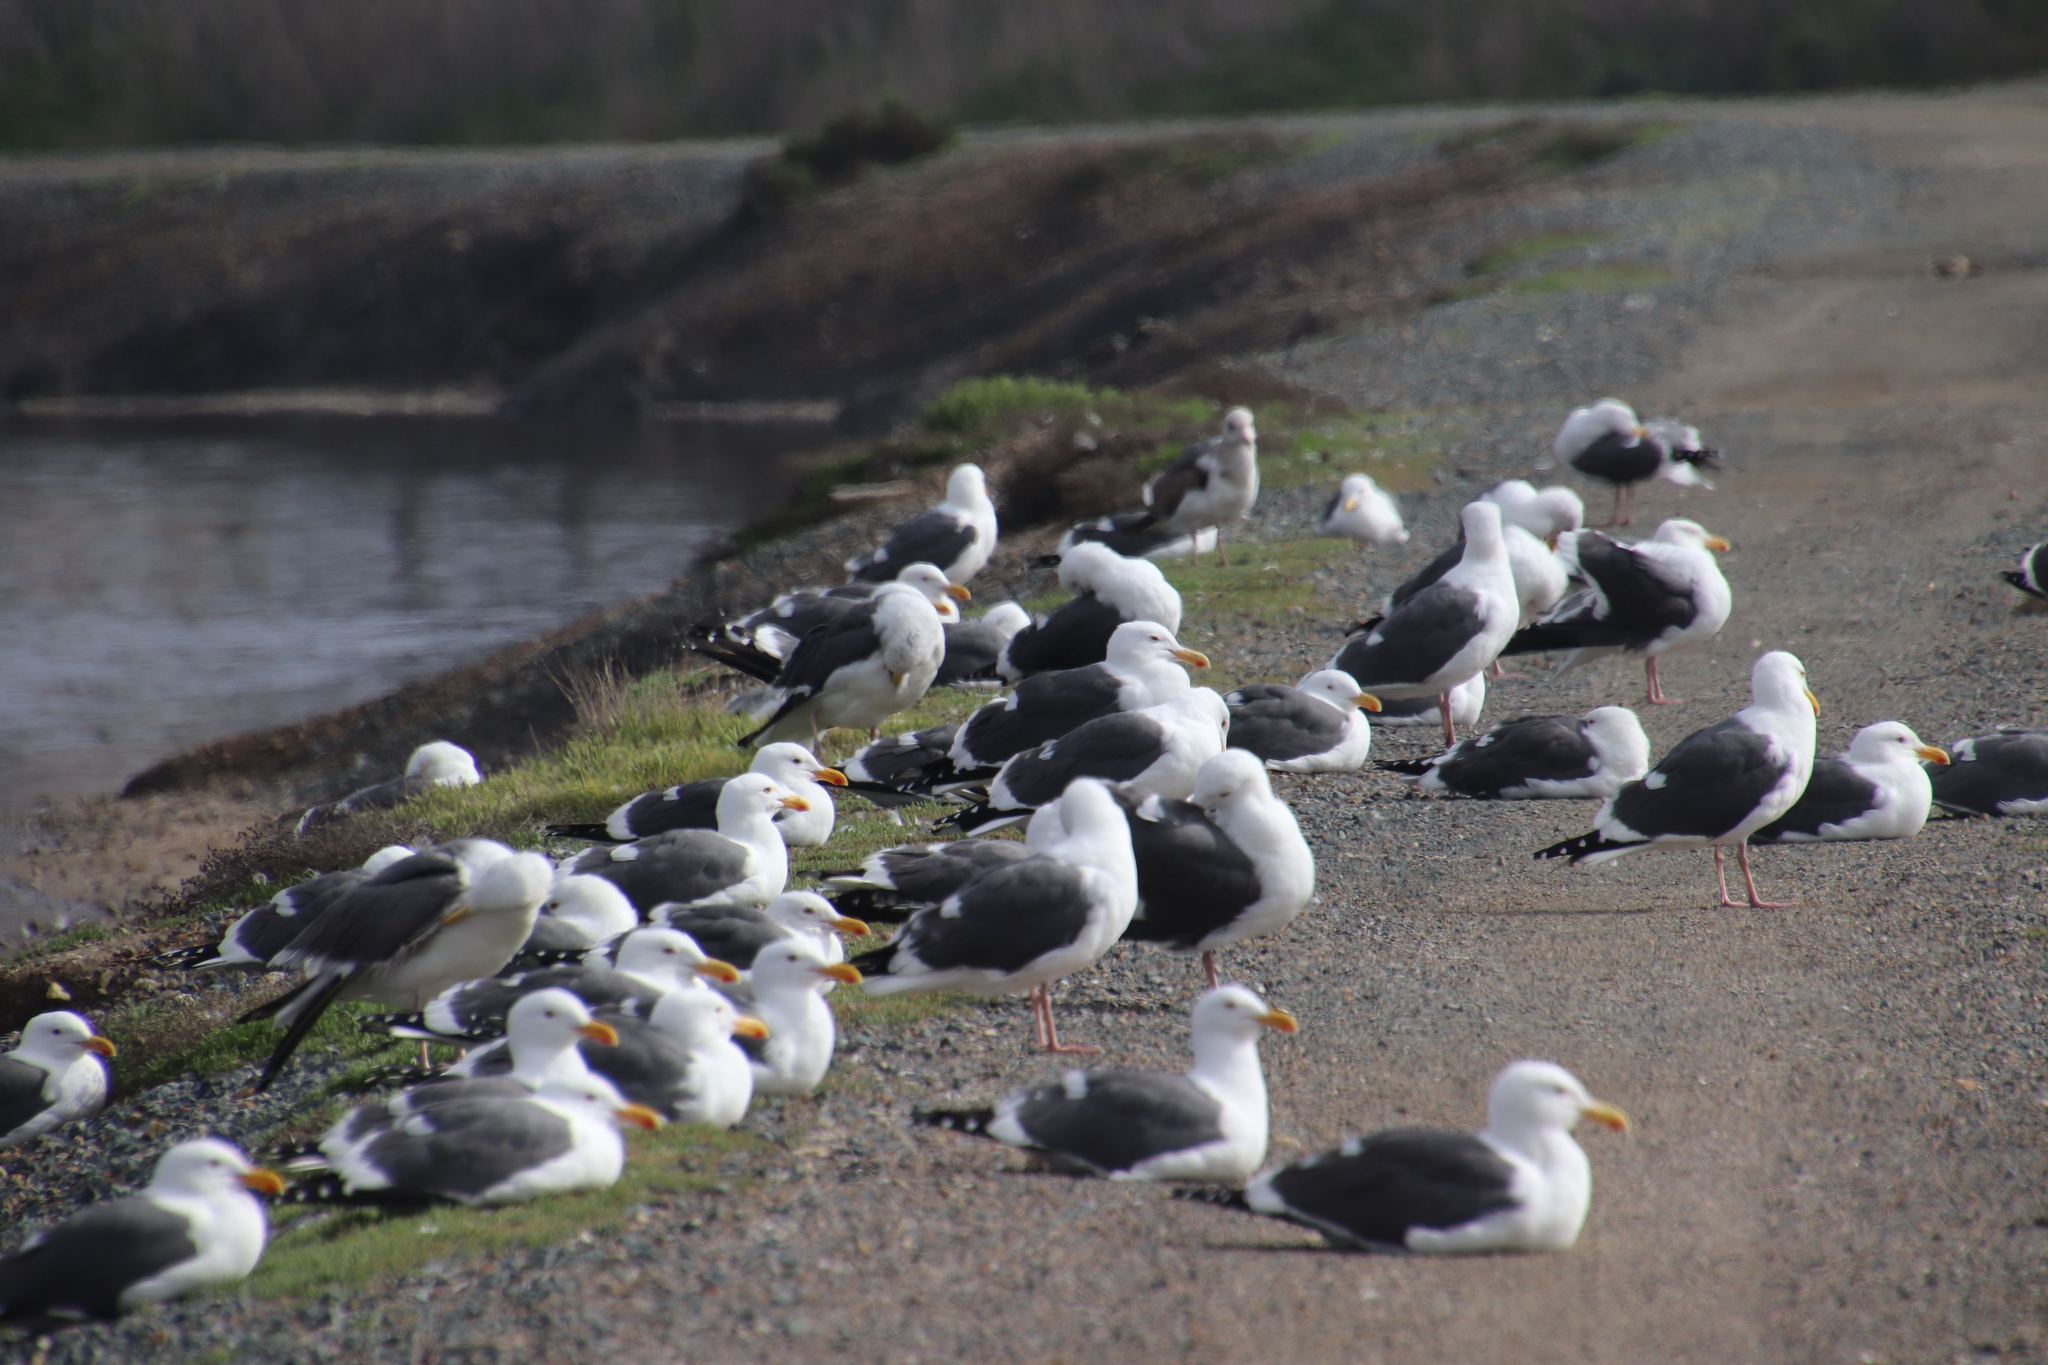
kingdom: Animalia
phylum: Chordata
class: Aves
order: Charadriiformes
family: Laridae
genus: Larus
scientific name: Larus occidentalis
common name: Western gull
